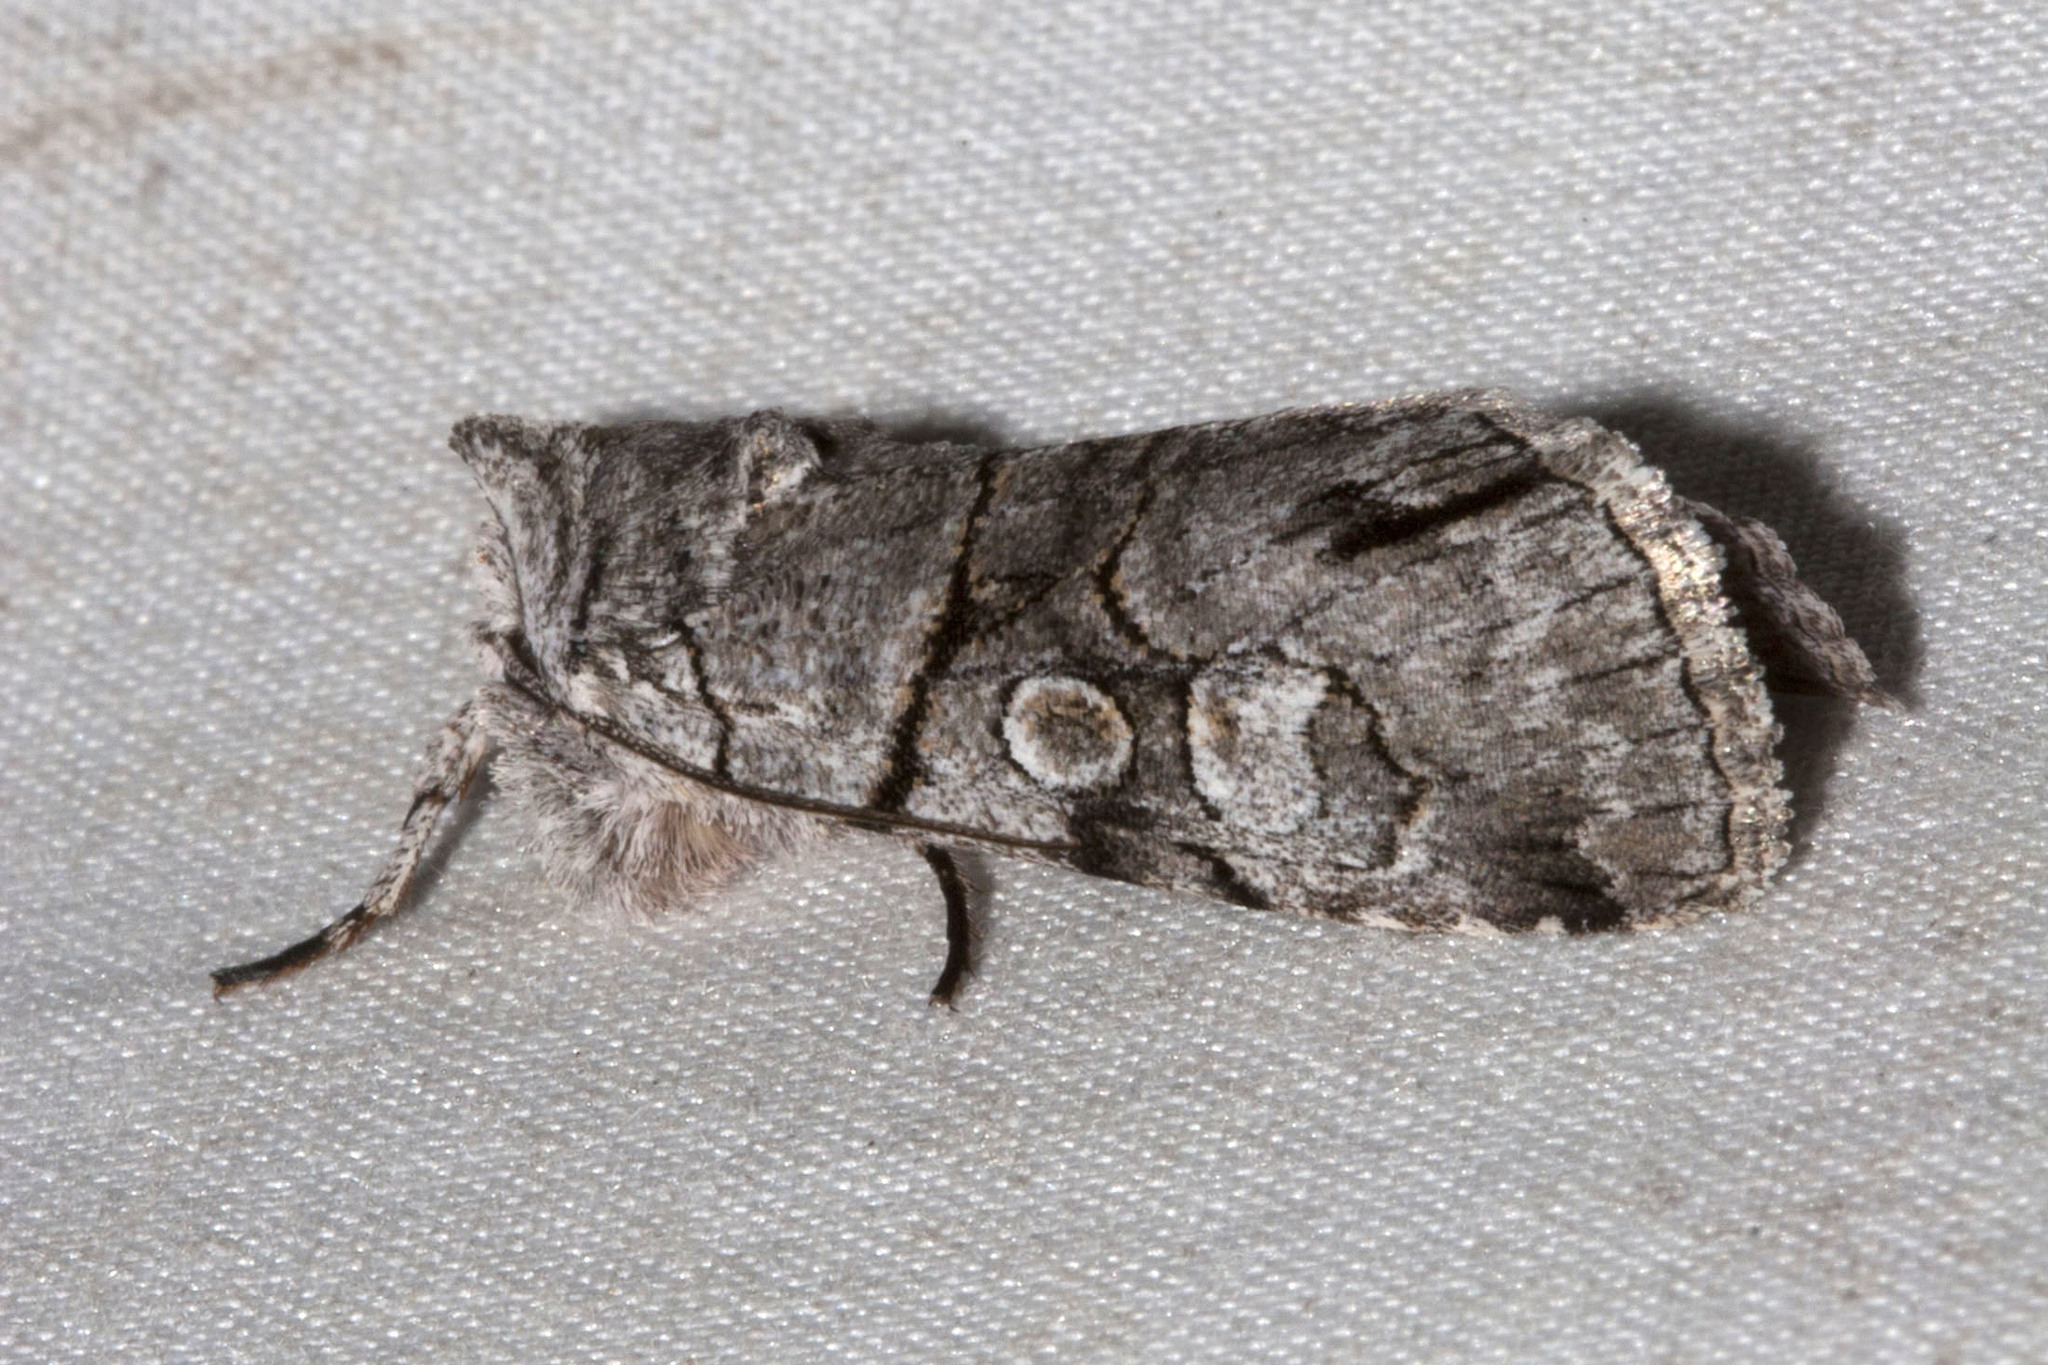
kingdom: Animalia
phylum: Arthropoda
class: Insecta
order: Lepidoptera
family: Noctuidae
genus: Sympistis
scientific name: Sympistis chionanthi
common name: Fringe-tree sallow
